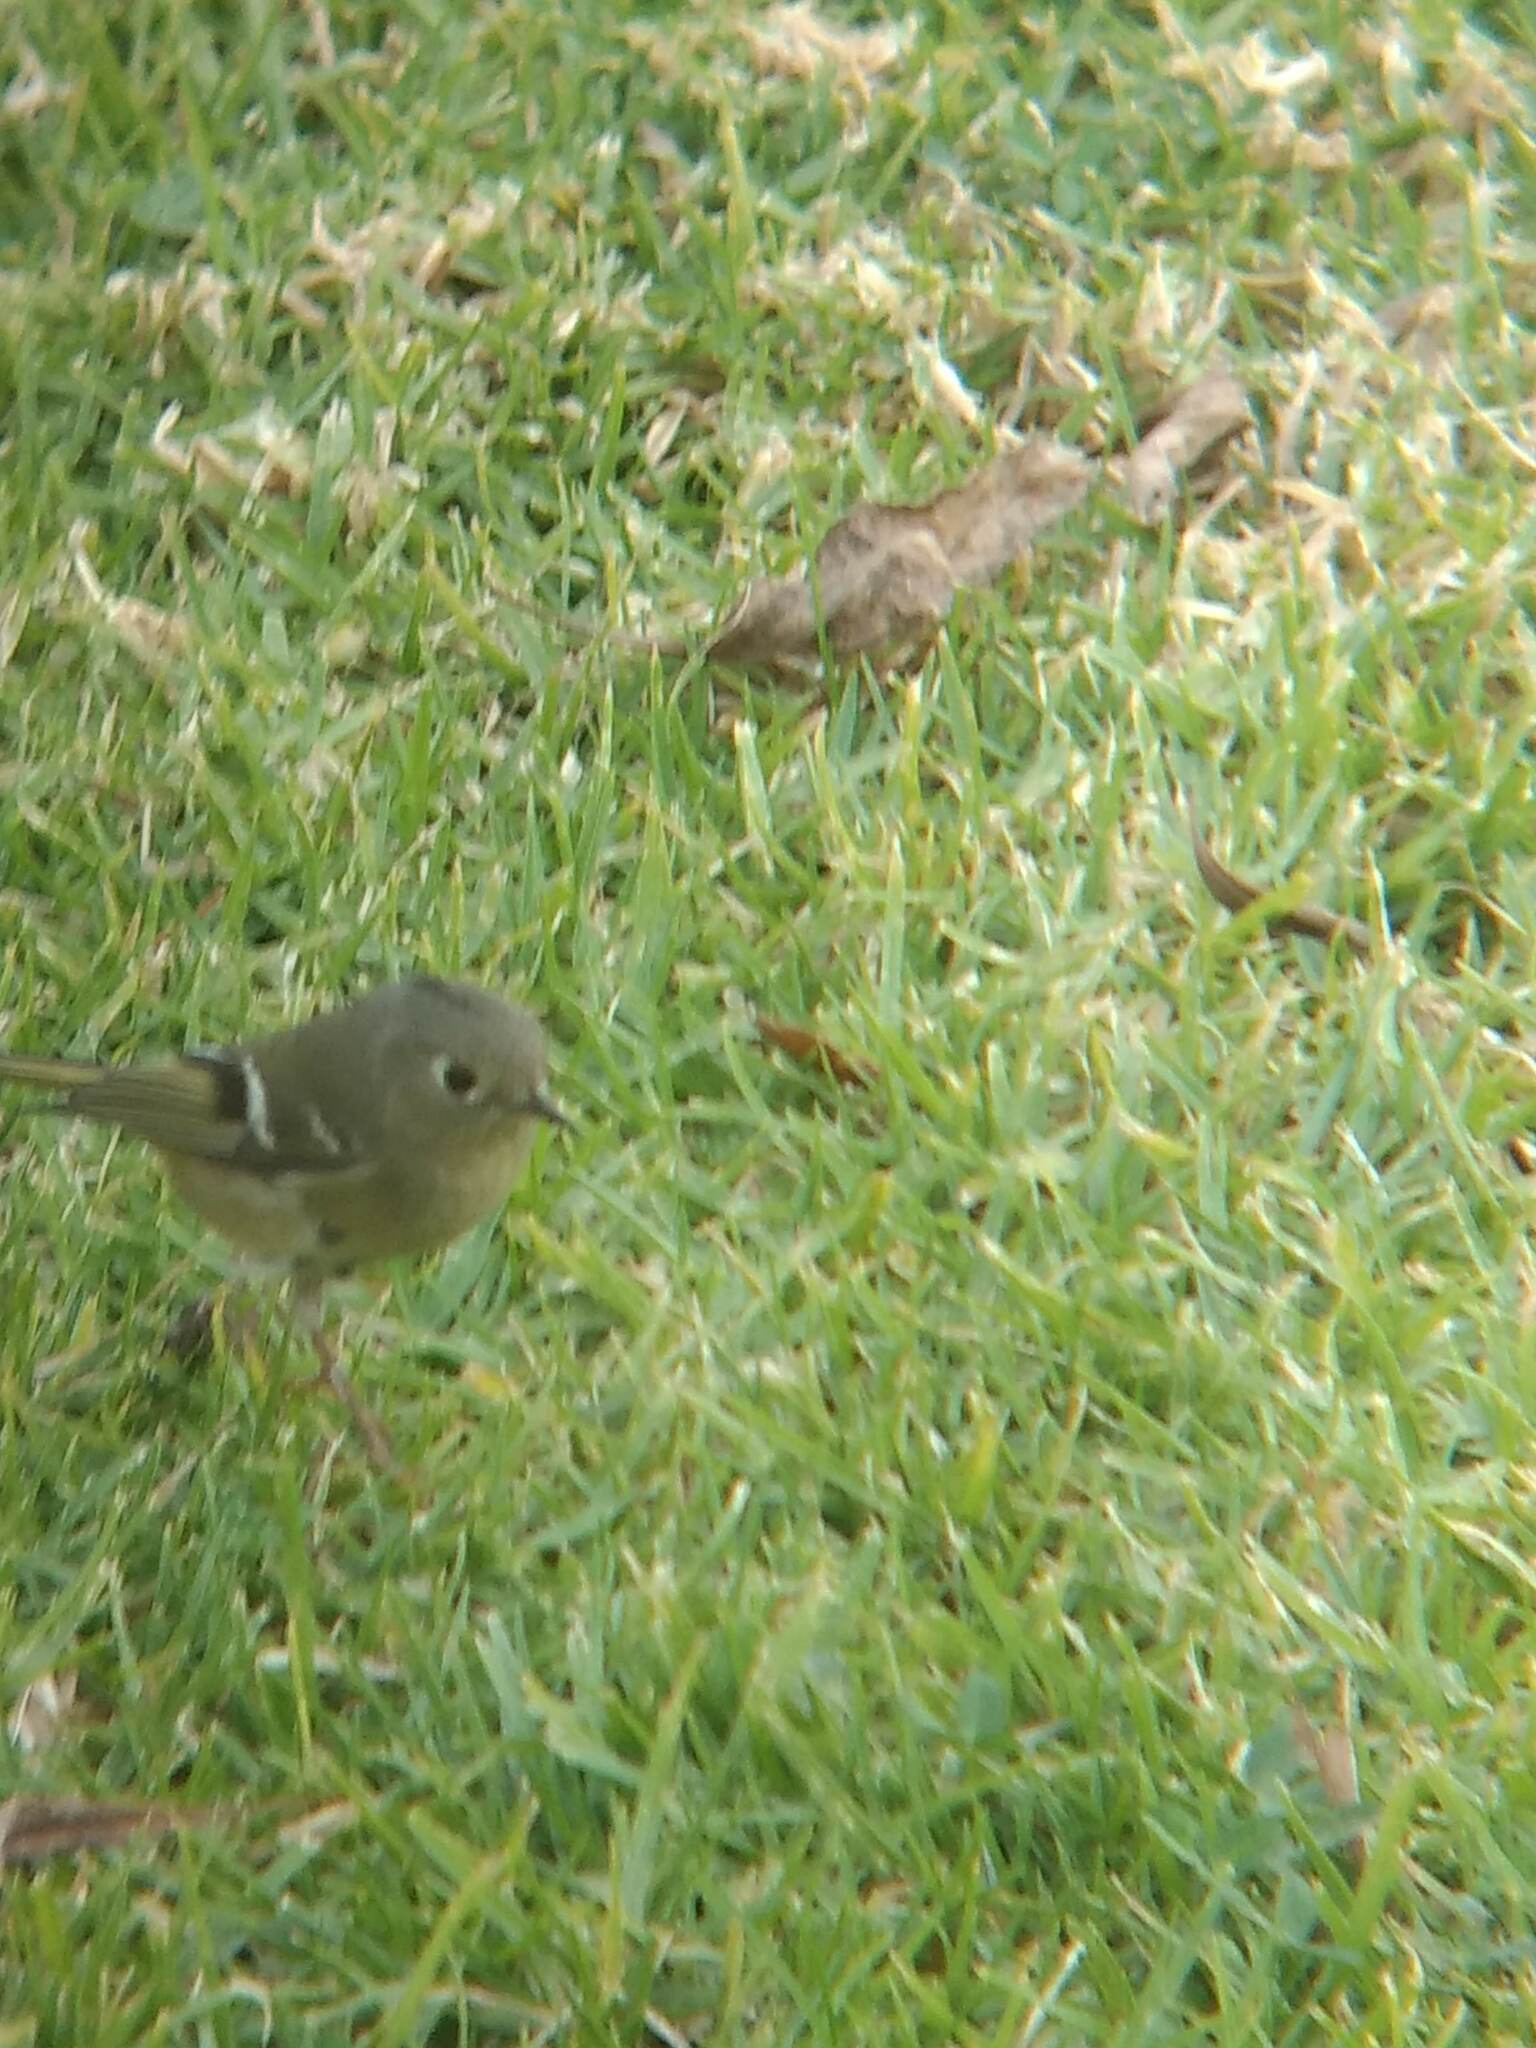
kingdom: Animalia
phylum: Chordata
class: Aves
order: Passeriformes
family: Regulidae
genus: Regulus
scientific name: Regulus calendula
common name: Ruby-crowned kinglet
